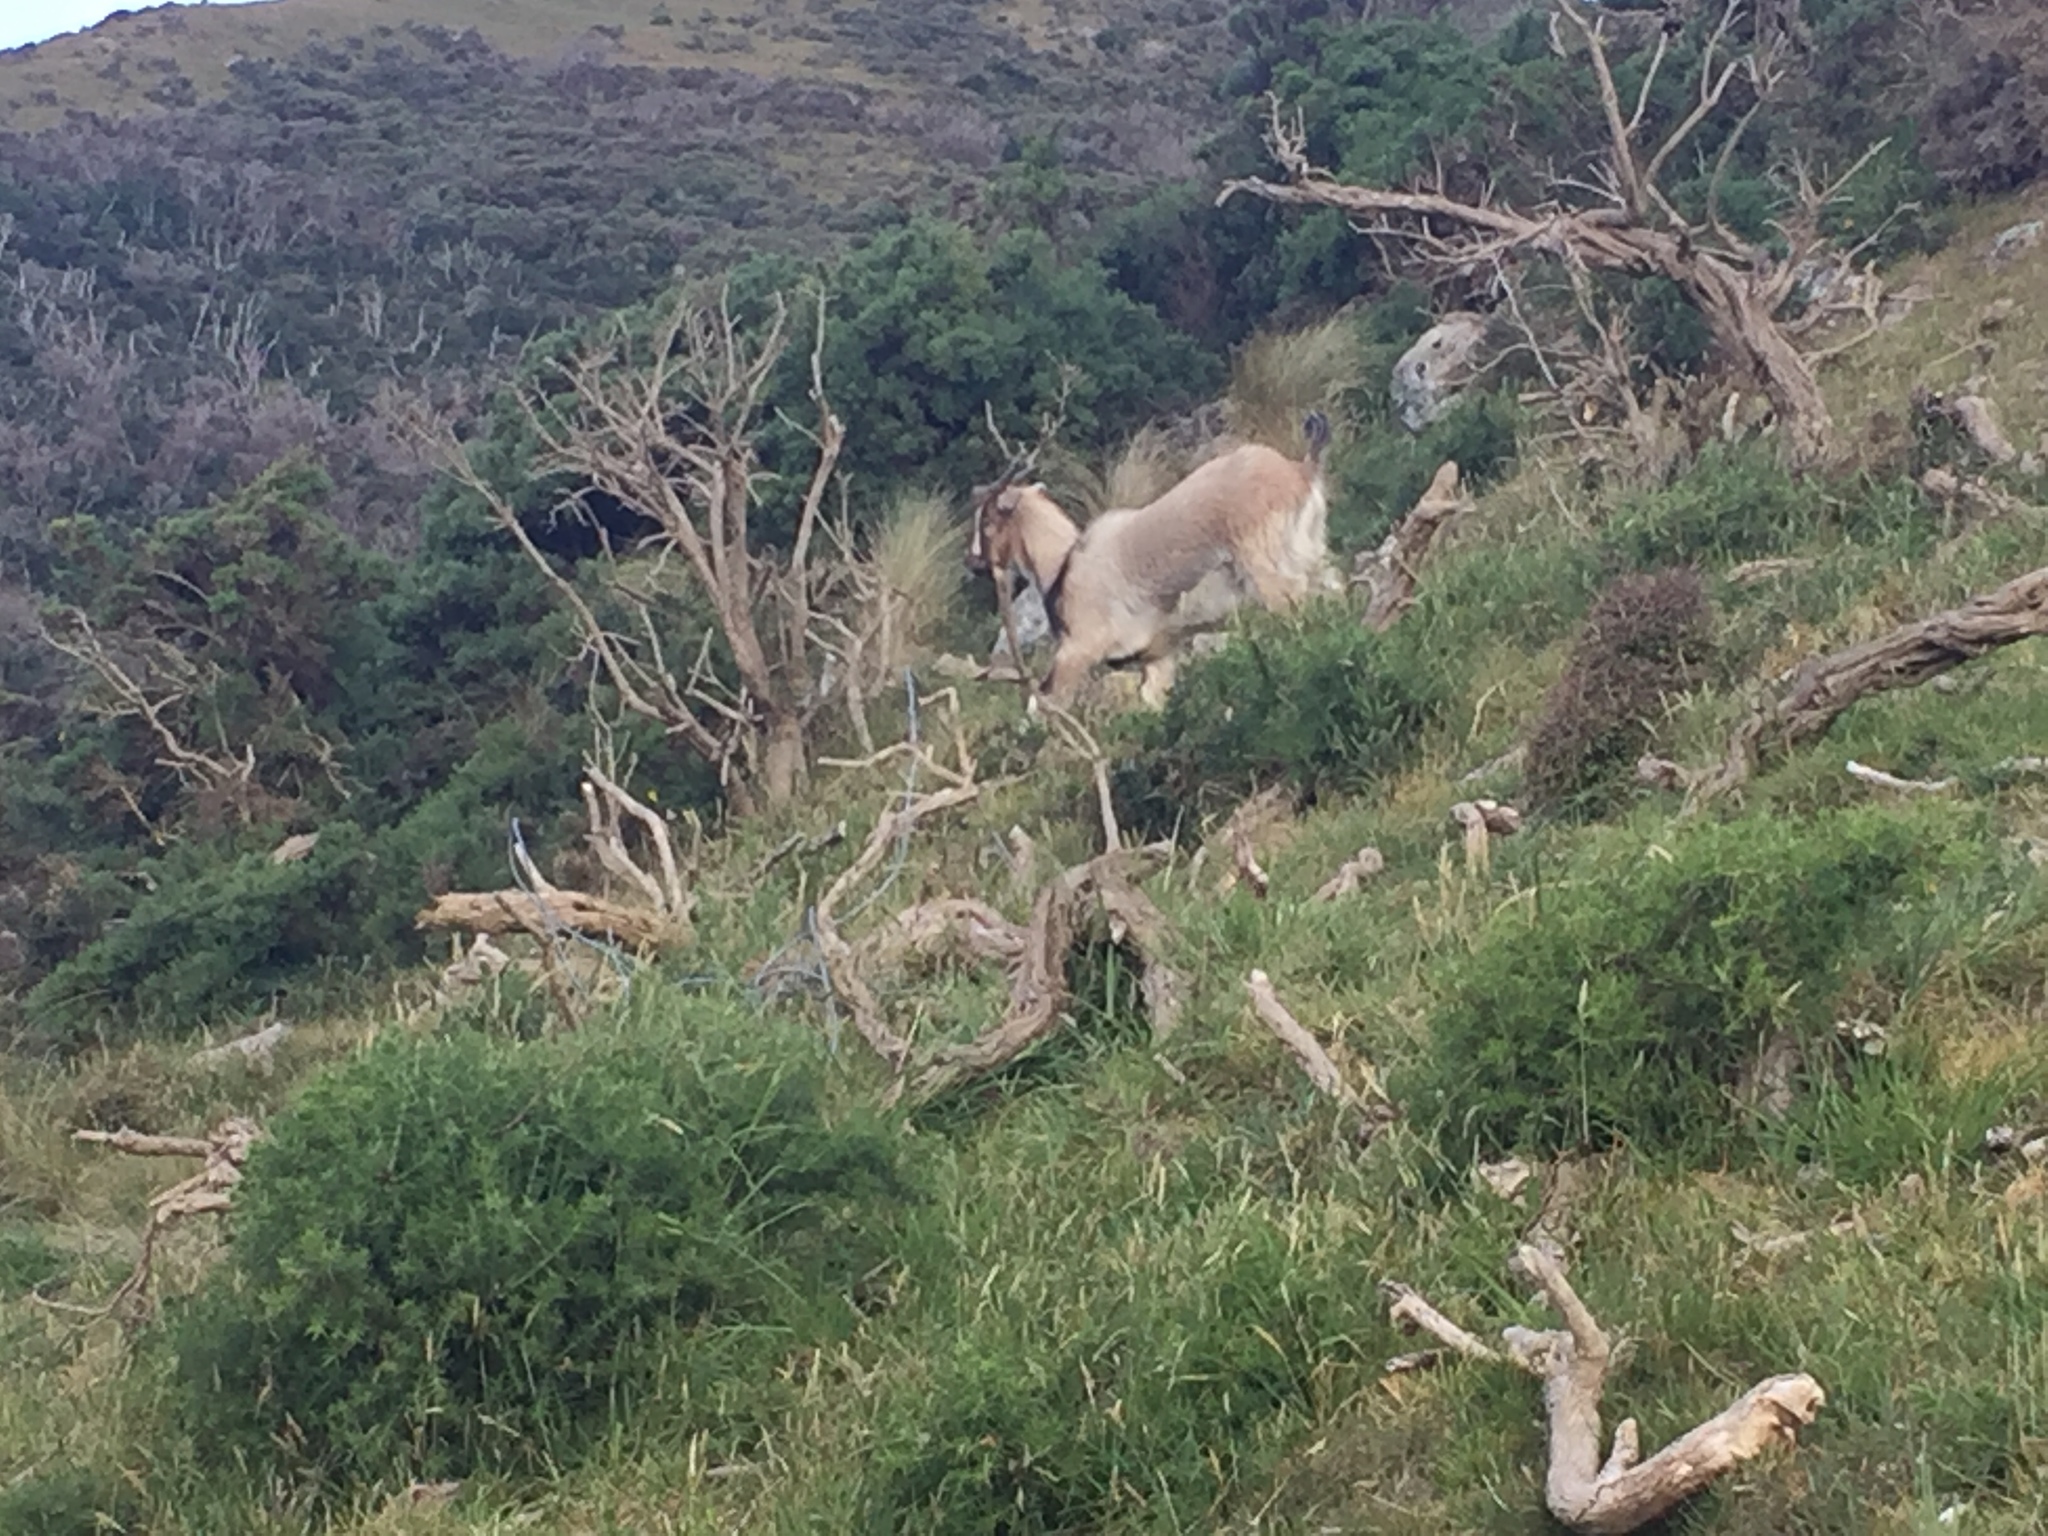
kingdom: Animalia
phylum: Chordata
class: Mammalia
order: Artiodactyla
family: Bovidae
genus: Capra
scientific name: Capra hircus
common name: Domestic goat
